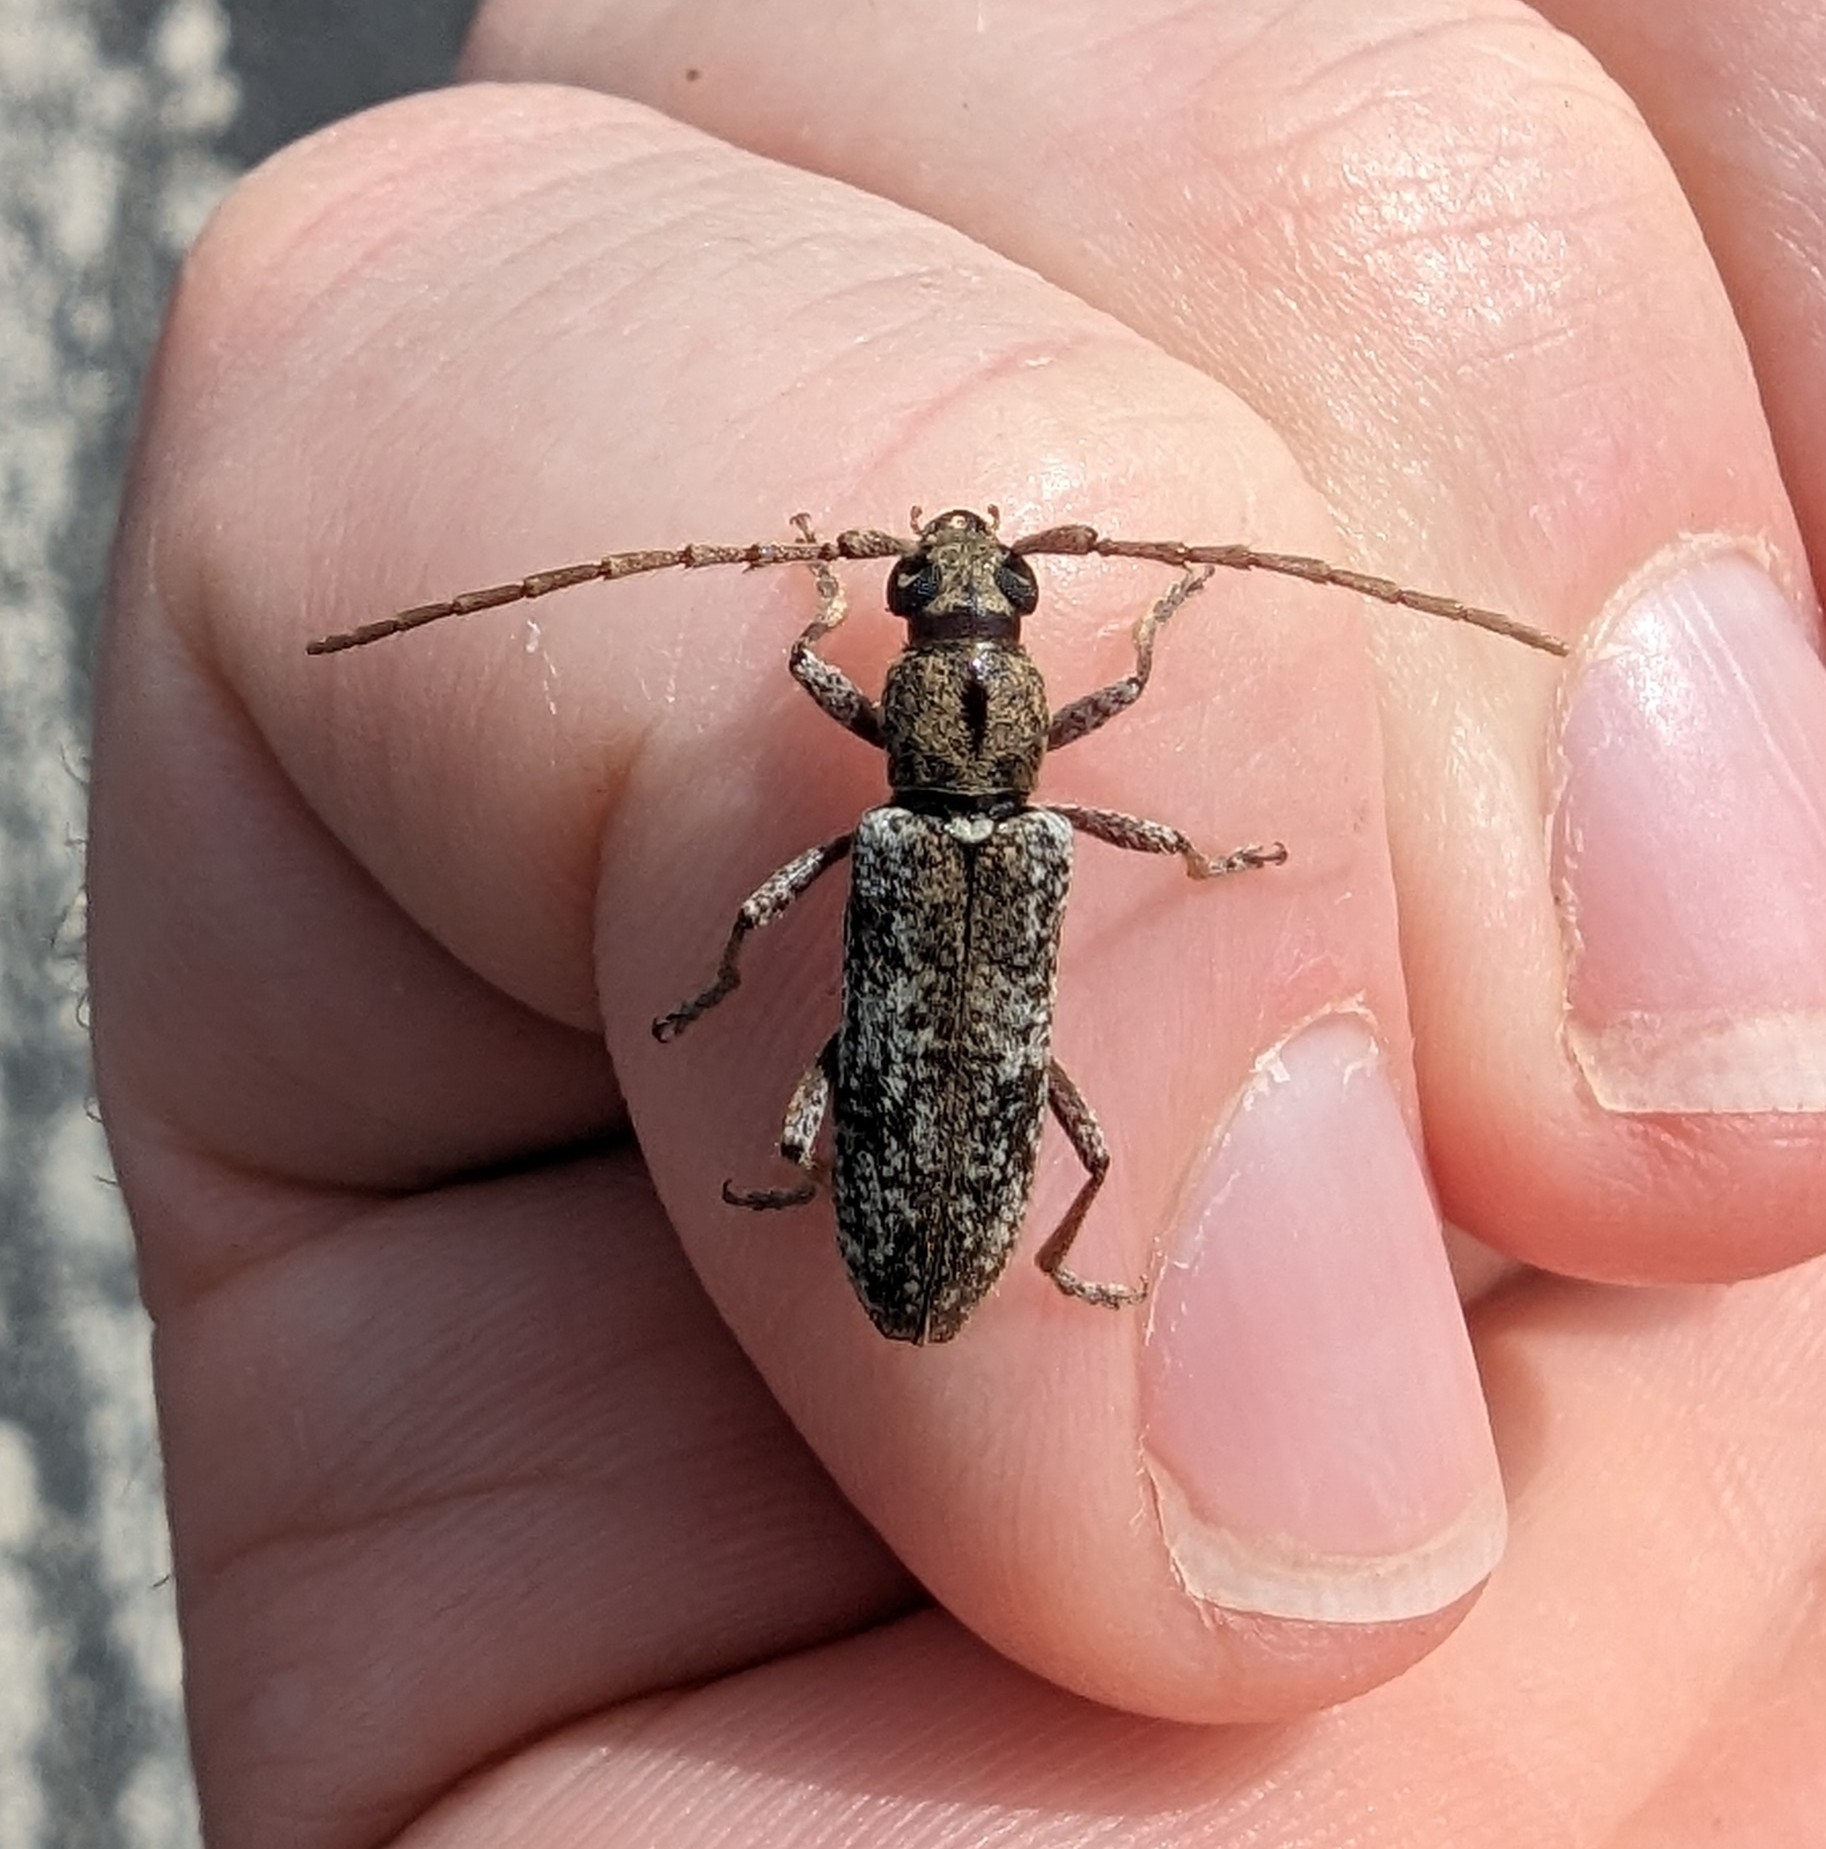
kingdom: Animalia
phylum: Arthropoda
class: Insecta
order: Coleoptera
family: Cerambycidae
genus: Anelaphus
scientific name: Anelaphus debilis
